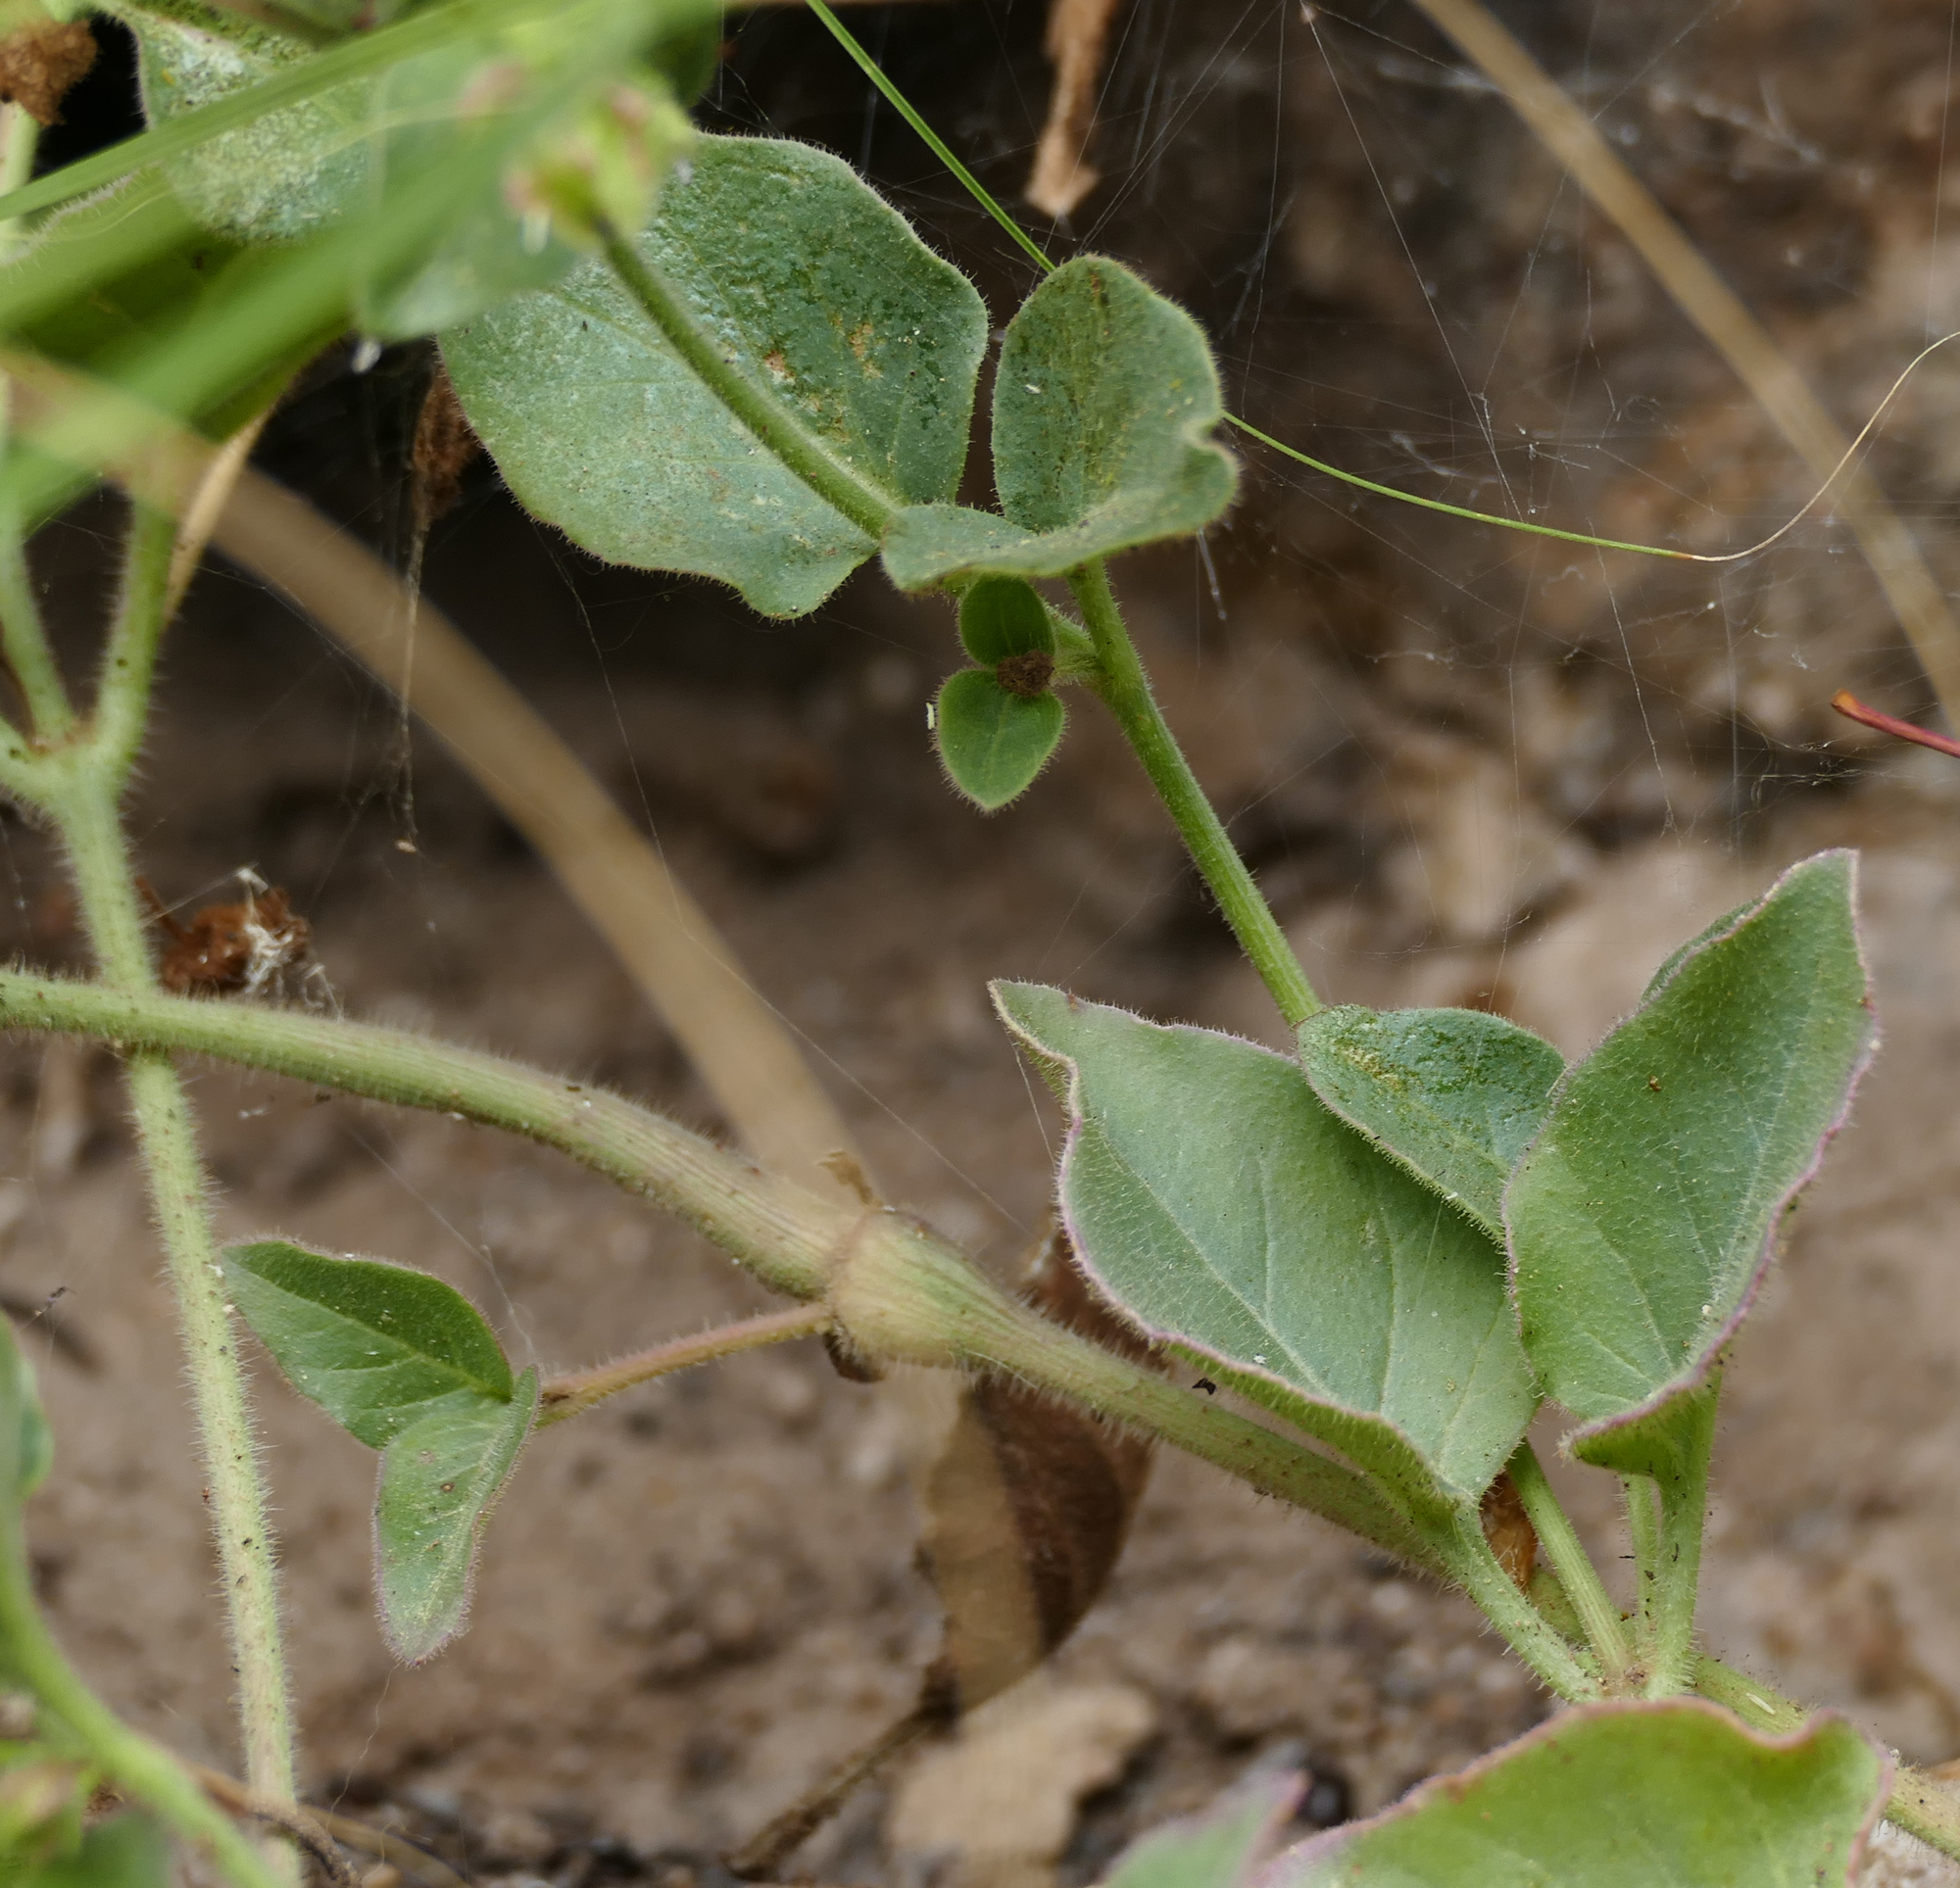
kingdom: Plantae
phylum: Tracheophyta
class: Magnoliopsida
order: Caryophyllales
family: Nyctaginaceae
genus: Mirabilis
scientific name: Mirabilis oxybaphoides
